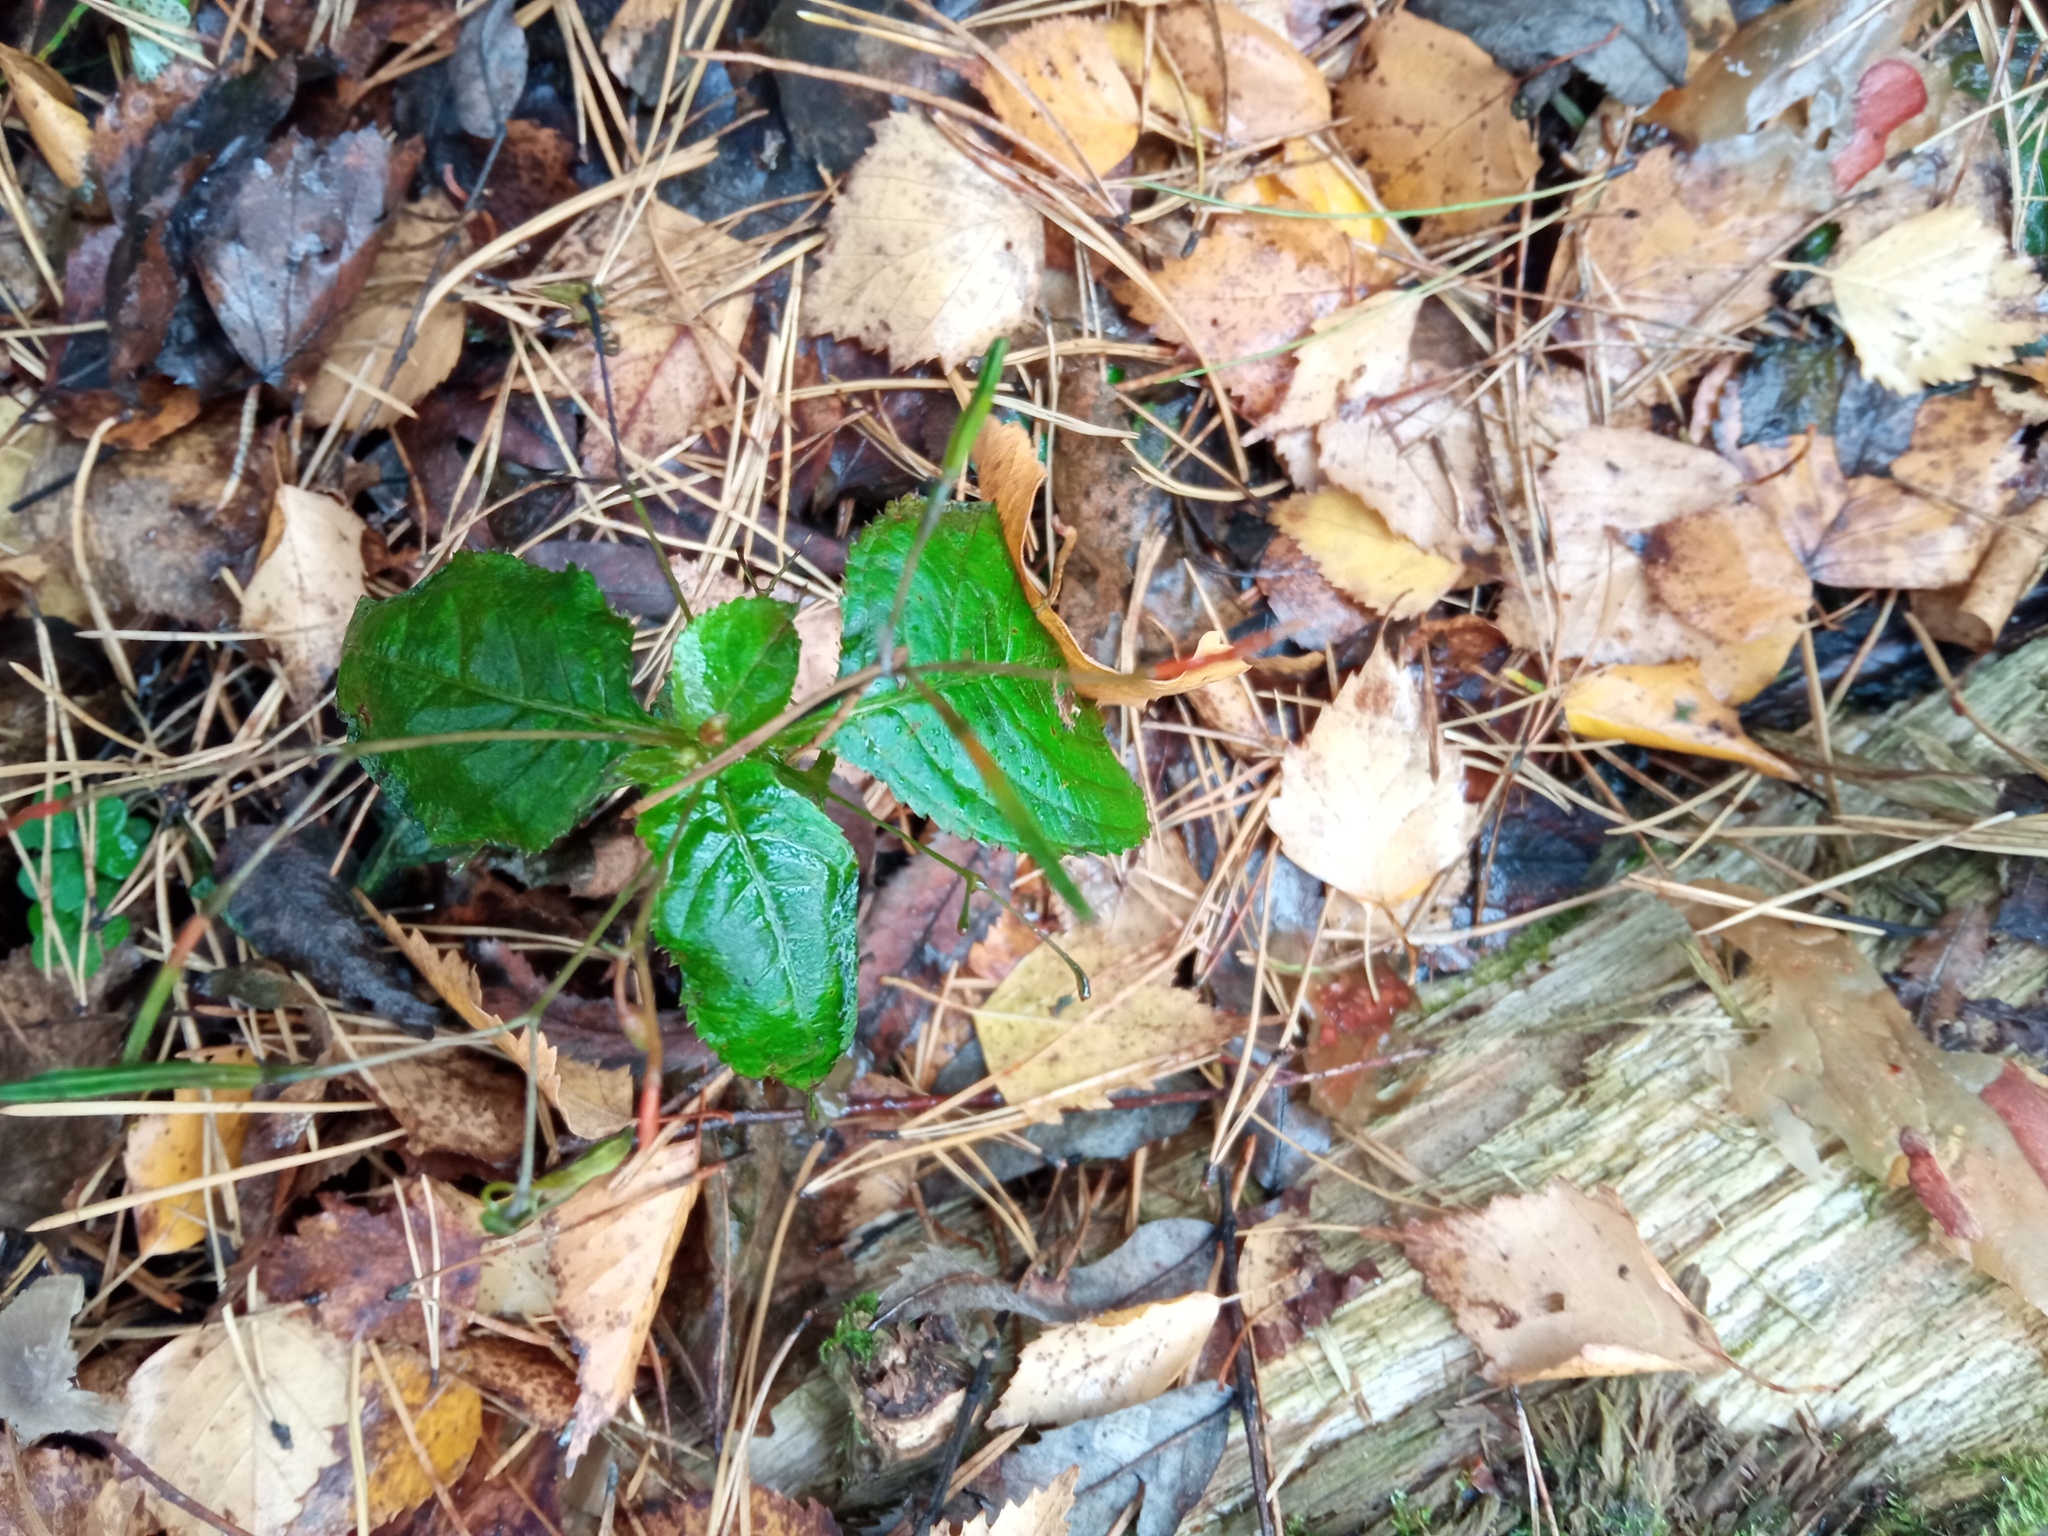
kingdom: Plantae
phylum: Tracheophyta
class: Magnoliopsida
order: Ericales
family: Balsaminaceae
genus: Impatiens
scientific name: Impatiens parviflora
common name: Small balsam
